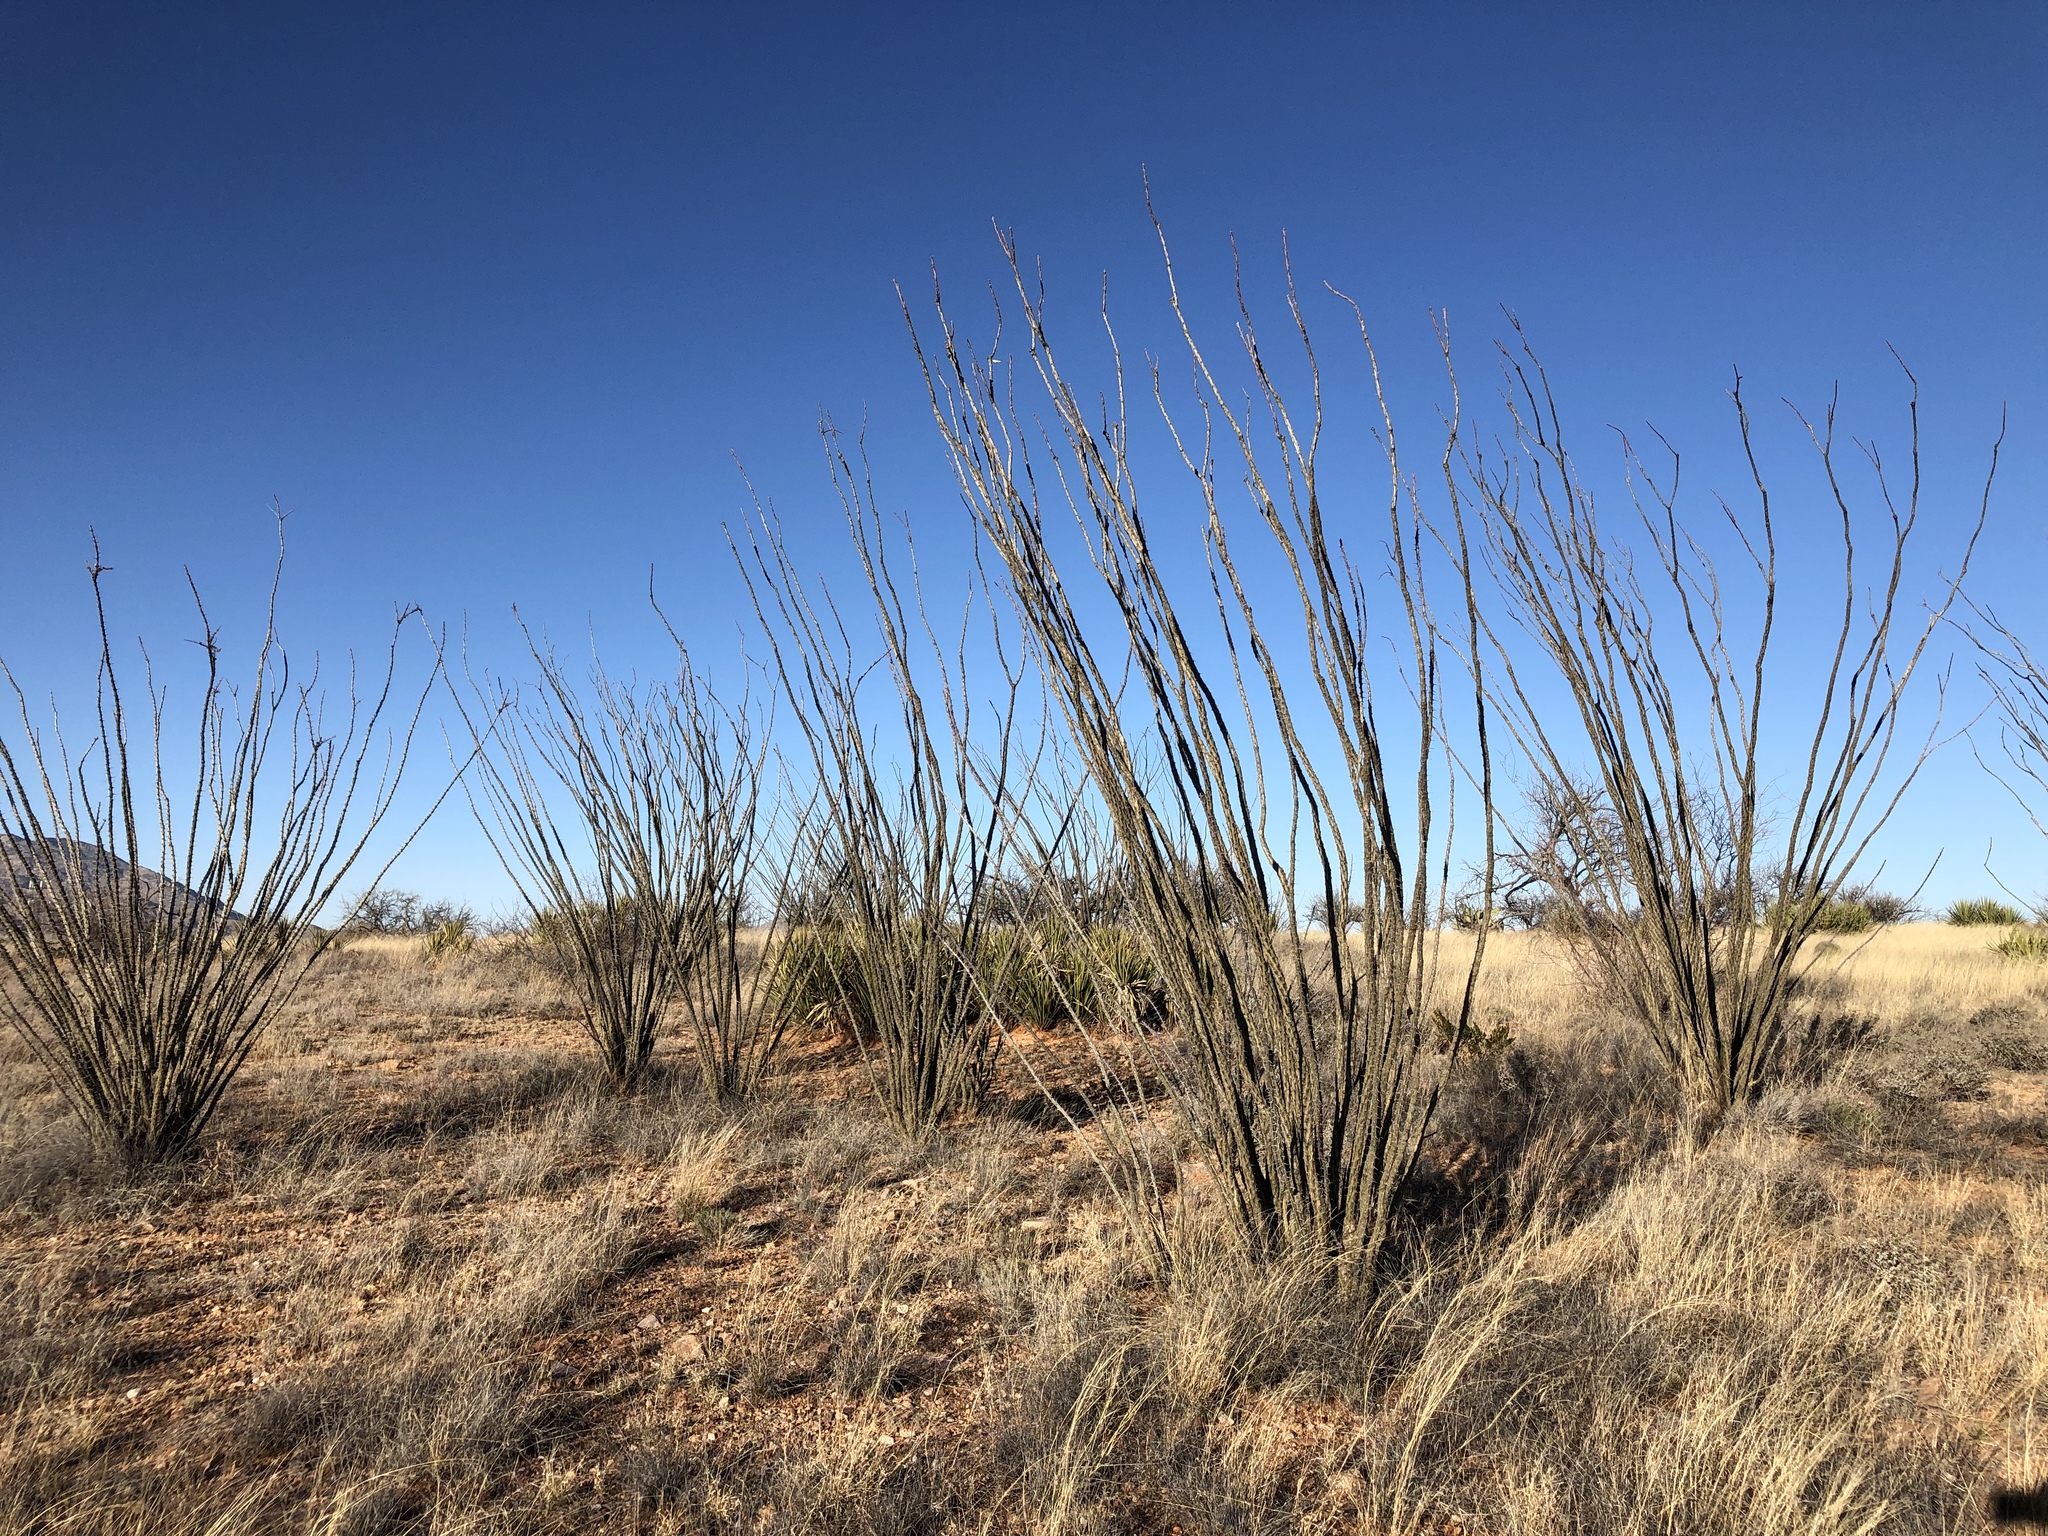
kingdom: Plantae
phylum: Tracheophyta
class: Magnoliopsida
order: Ericales
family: Fouquieriaceae
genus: Fouquieria
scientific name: Fouquieria splendens
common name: Vine-cactus
